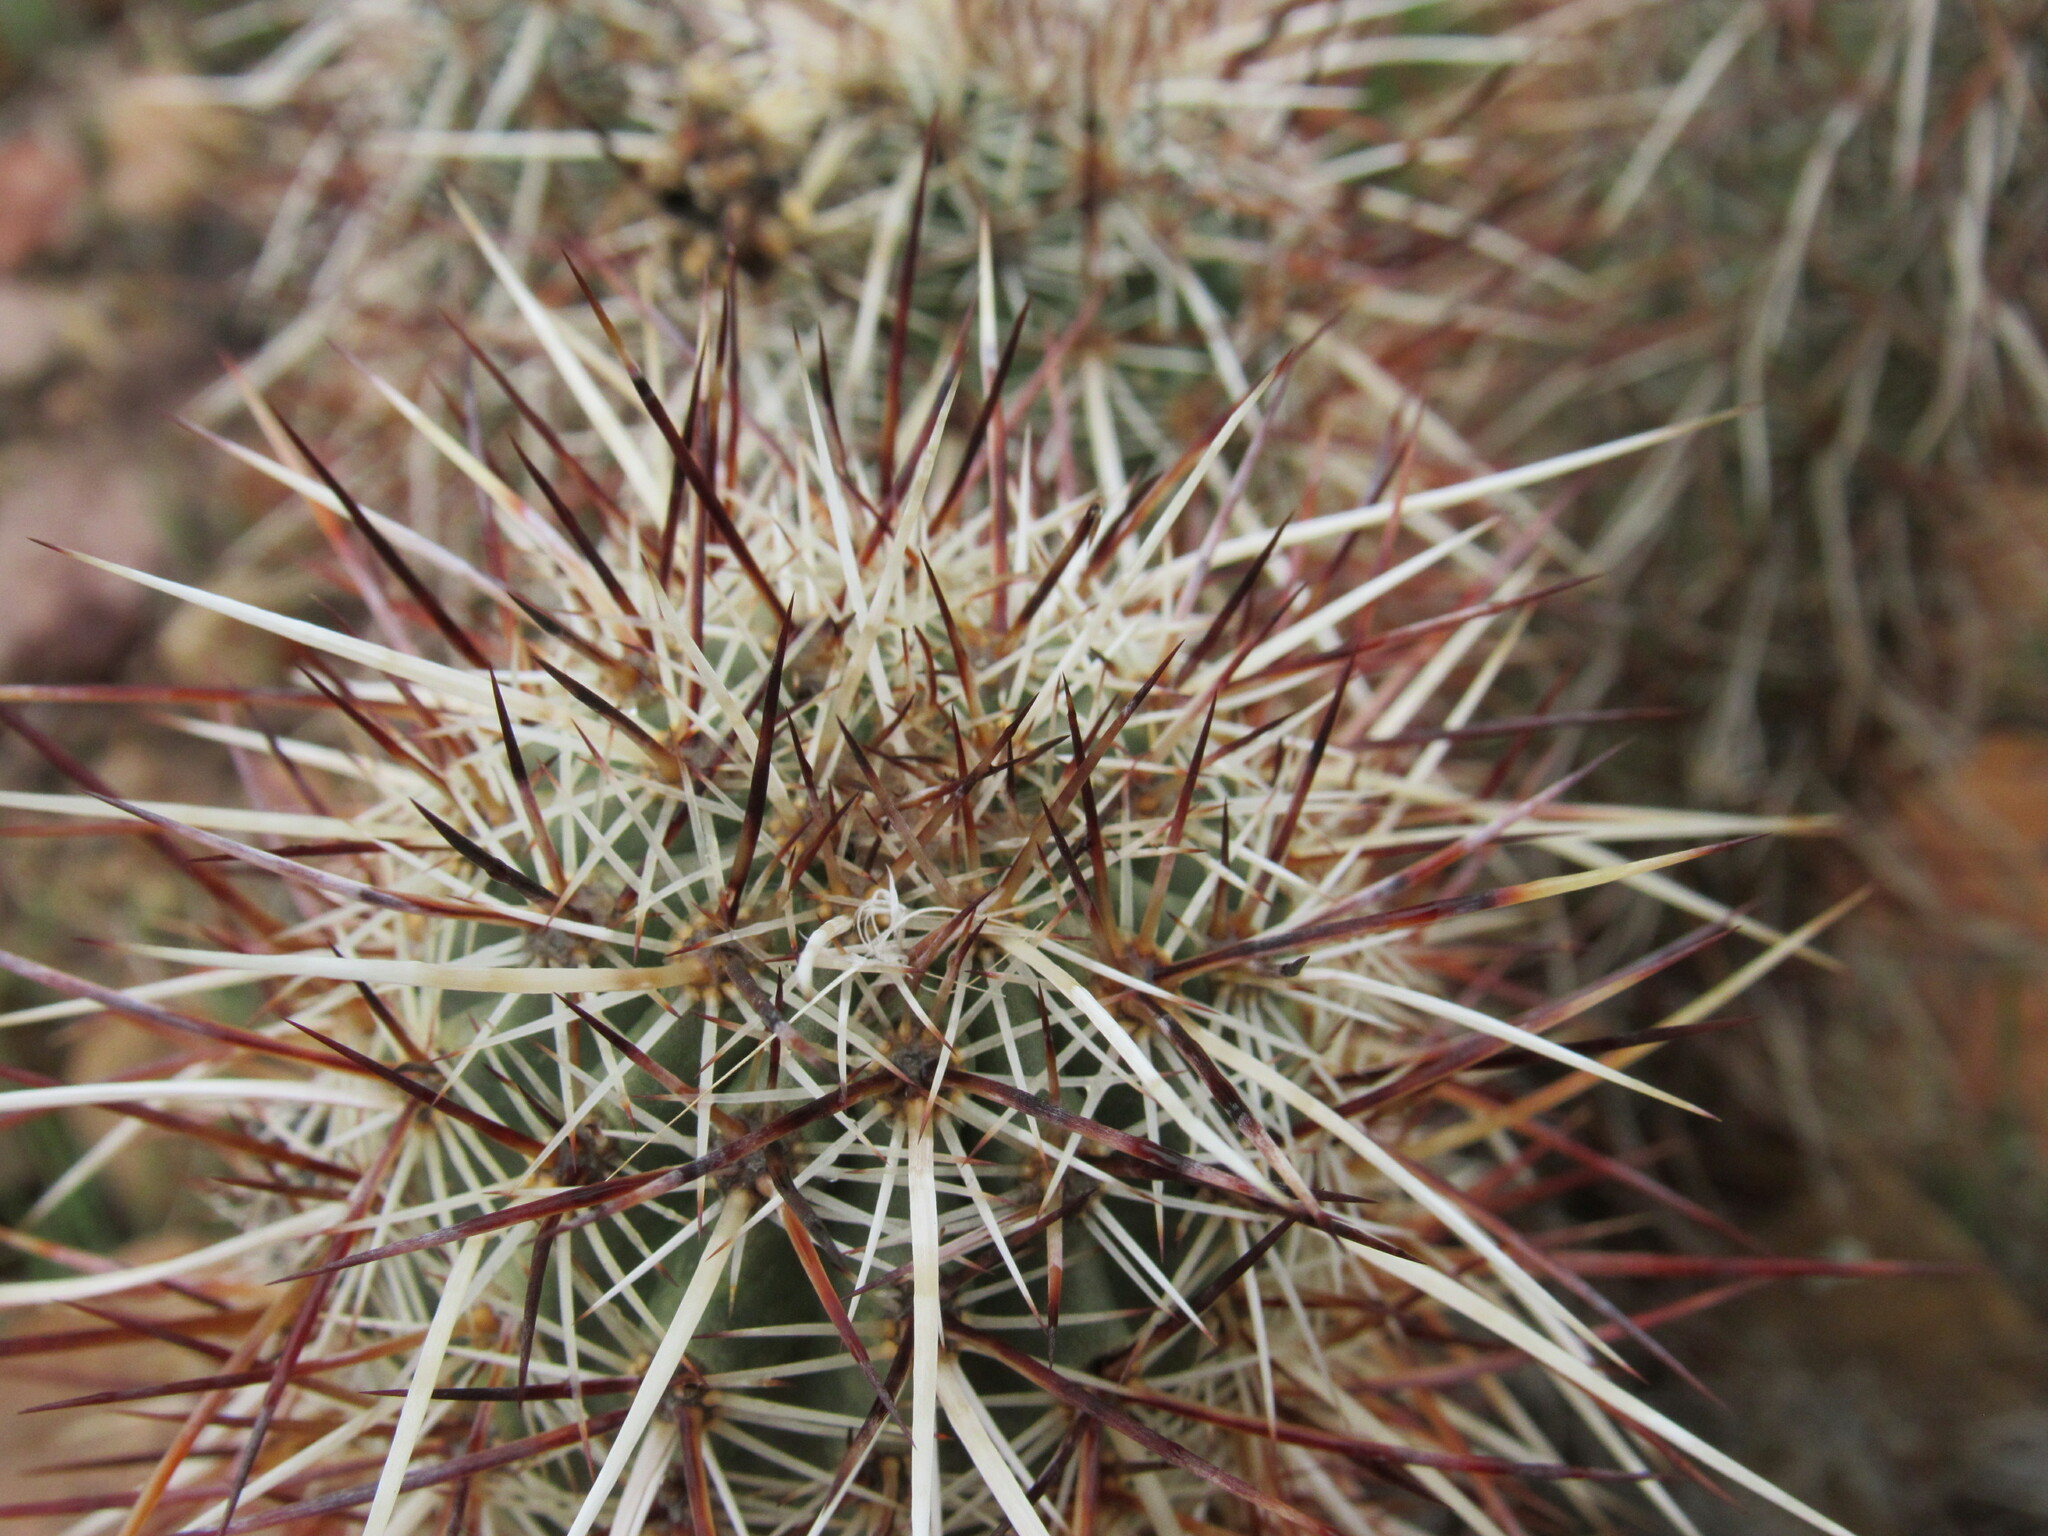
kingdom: Plantae
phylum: Tracheophyta
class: Magnoliopsida
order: Caryophyllales
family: Cactaceae
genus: Echinocereus
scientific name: Echinocereus engelmannii
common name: Engelmann's hedgehog cactus
